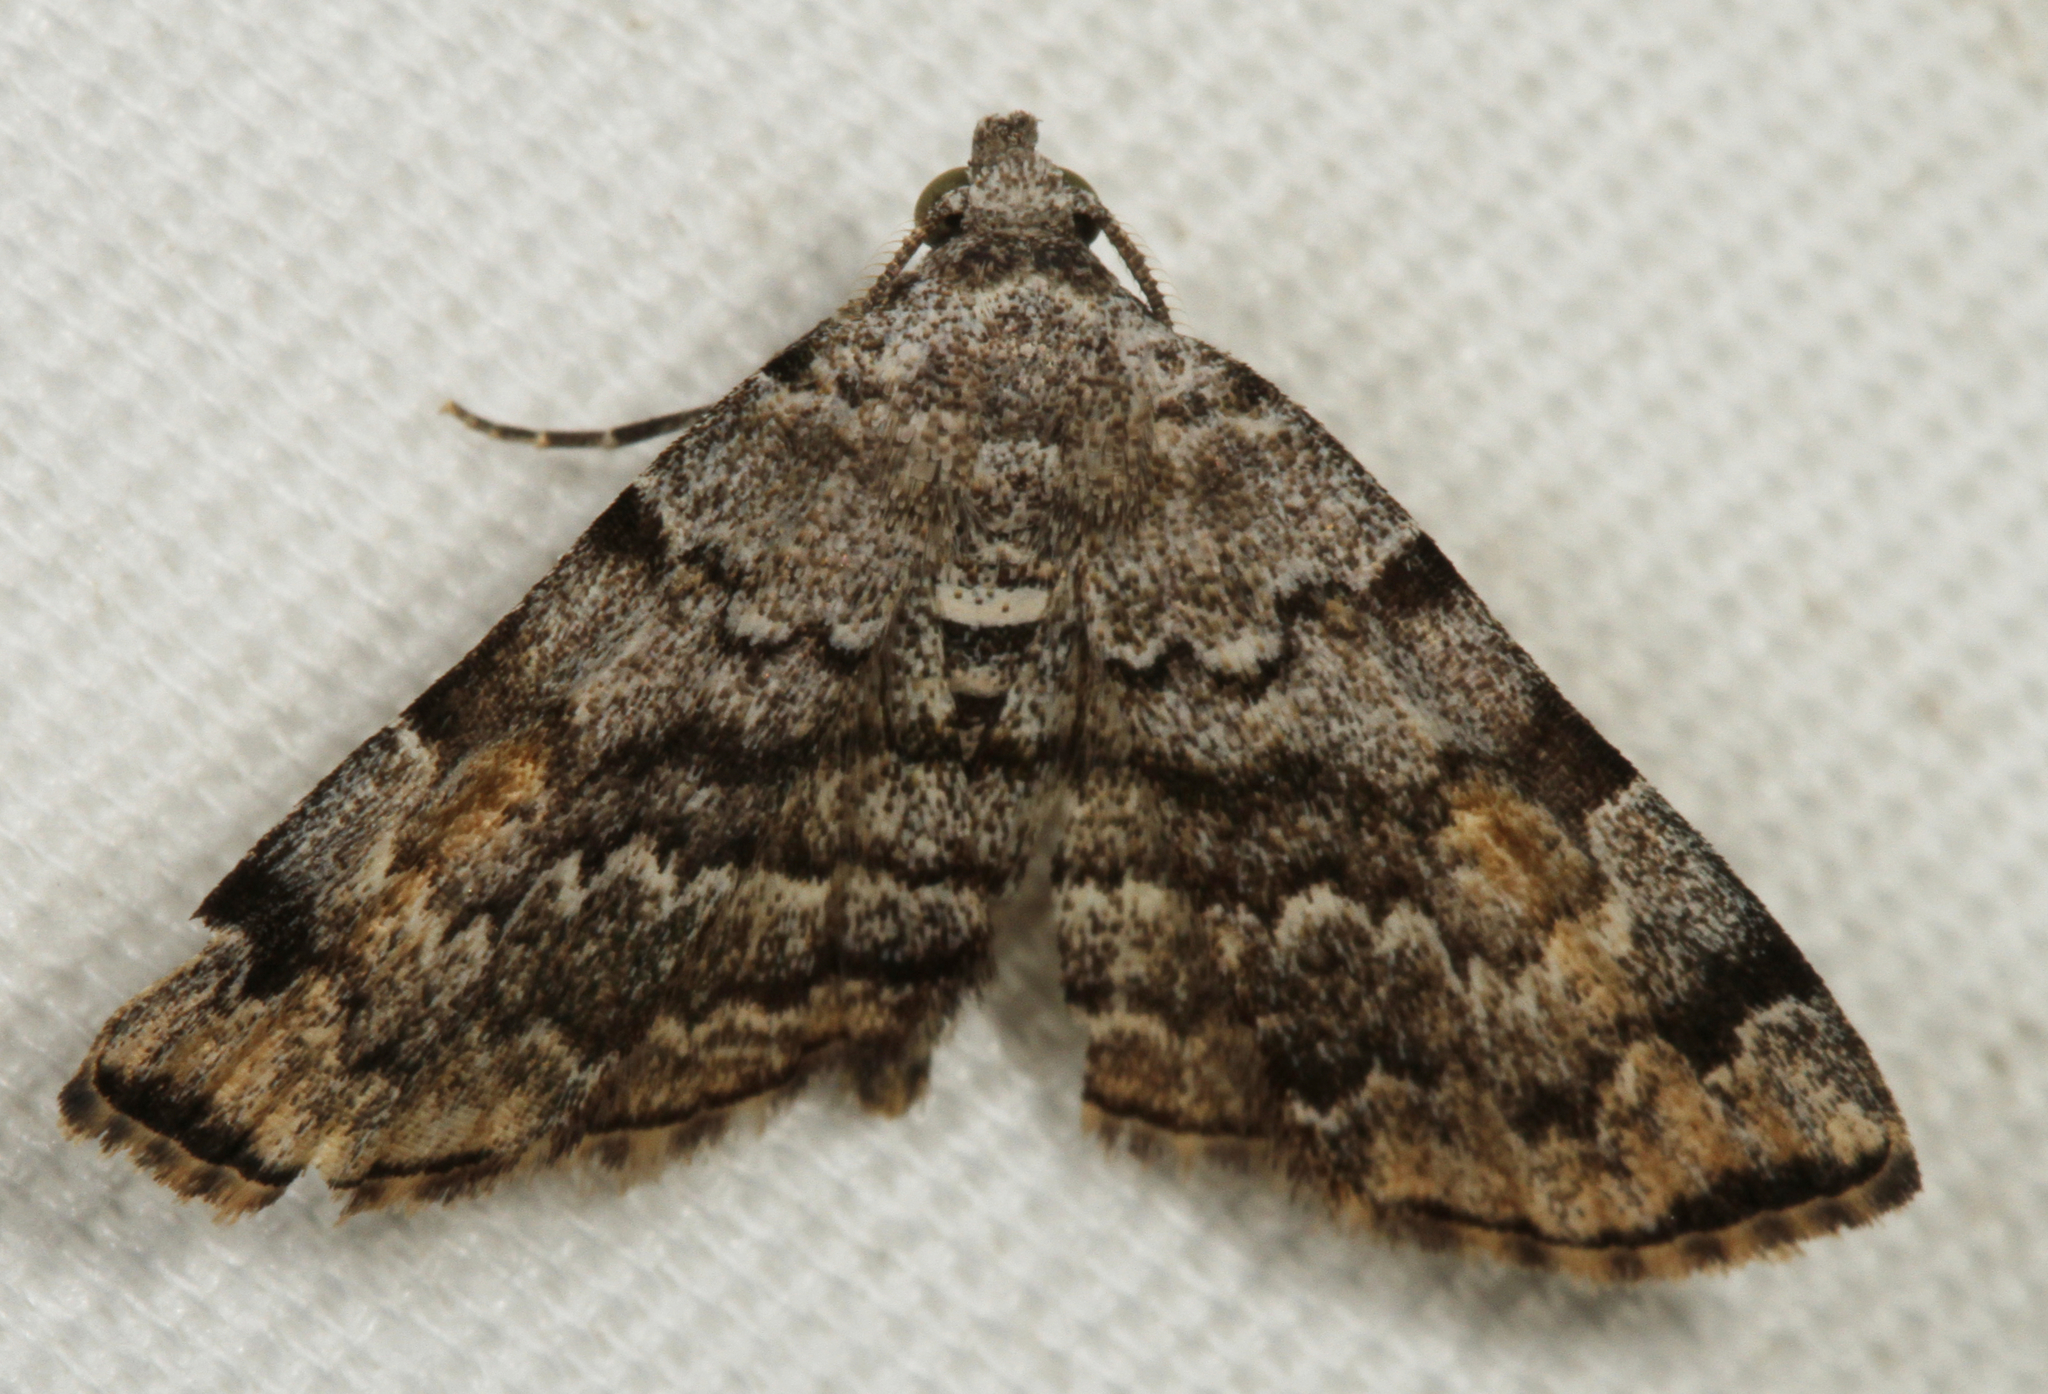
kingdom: Animalia
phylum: Arthropoda
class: Insecta
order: Lepidoptera
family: Erebidae
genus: Idia
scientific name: Idia americalis
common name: American idia moth
